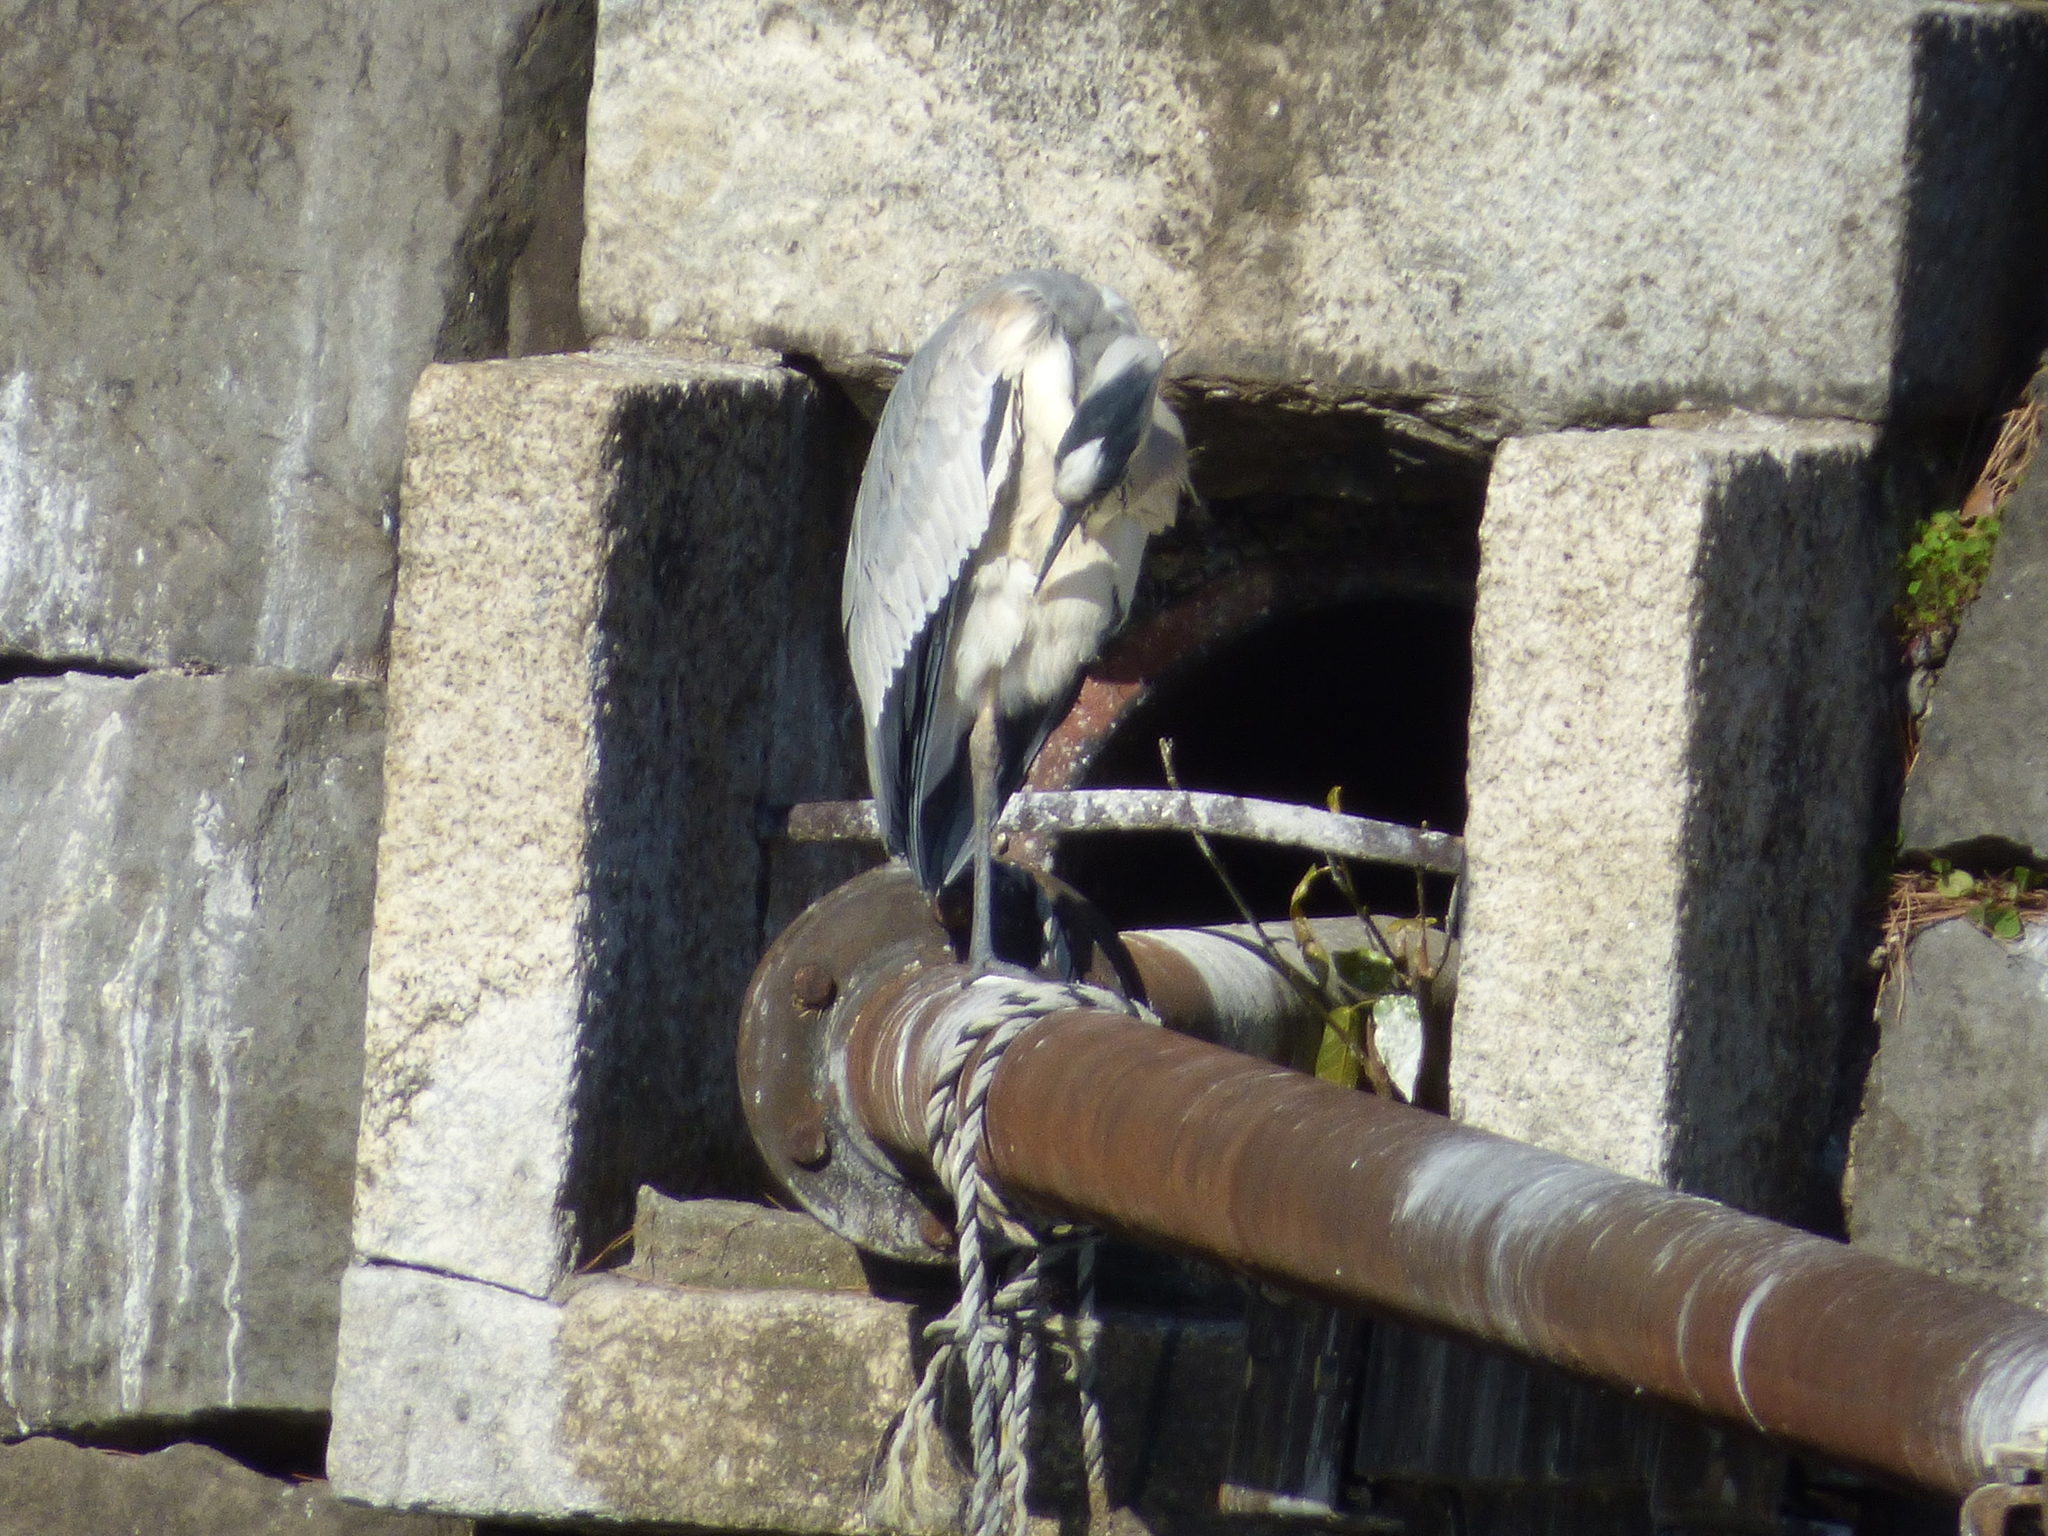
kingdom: Animalia
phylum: Chordata
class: Aves
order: Pelecaniformes
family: Ardeidae
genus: Ardea
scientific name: Ardea cinerea
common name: Grey heron
